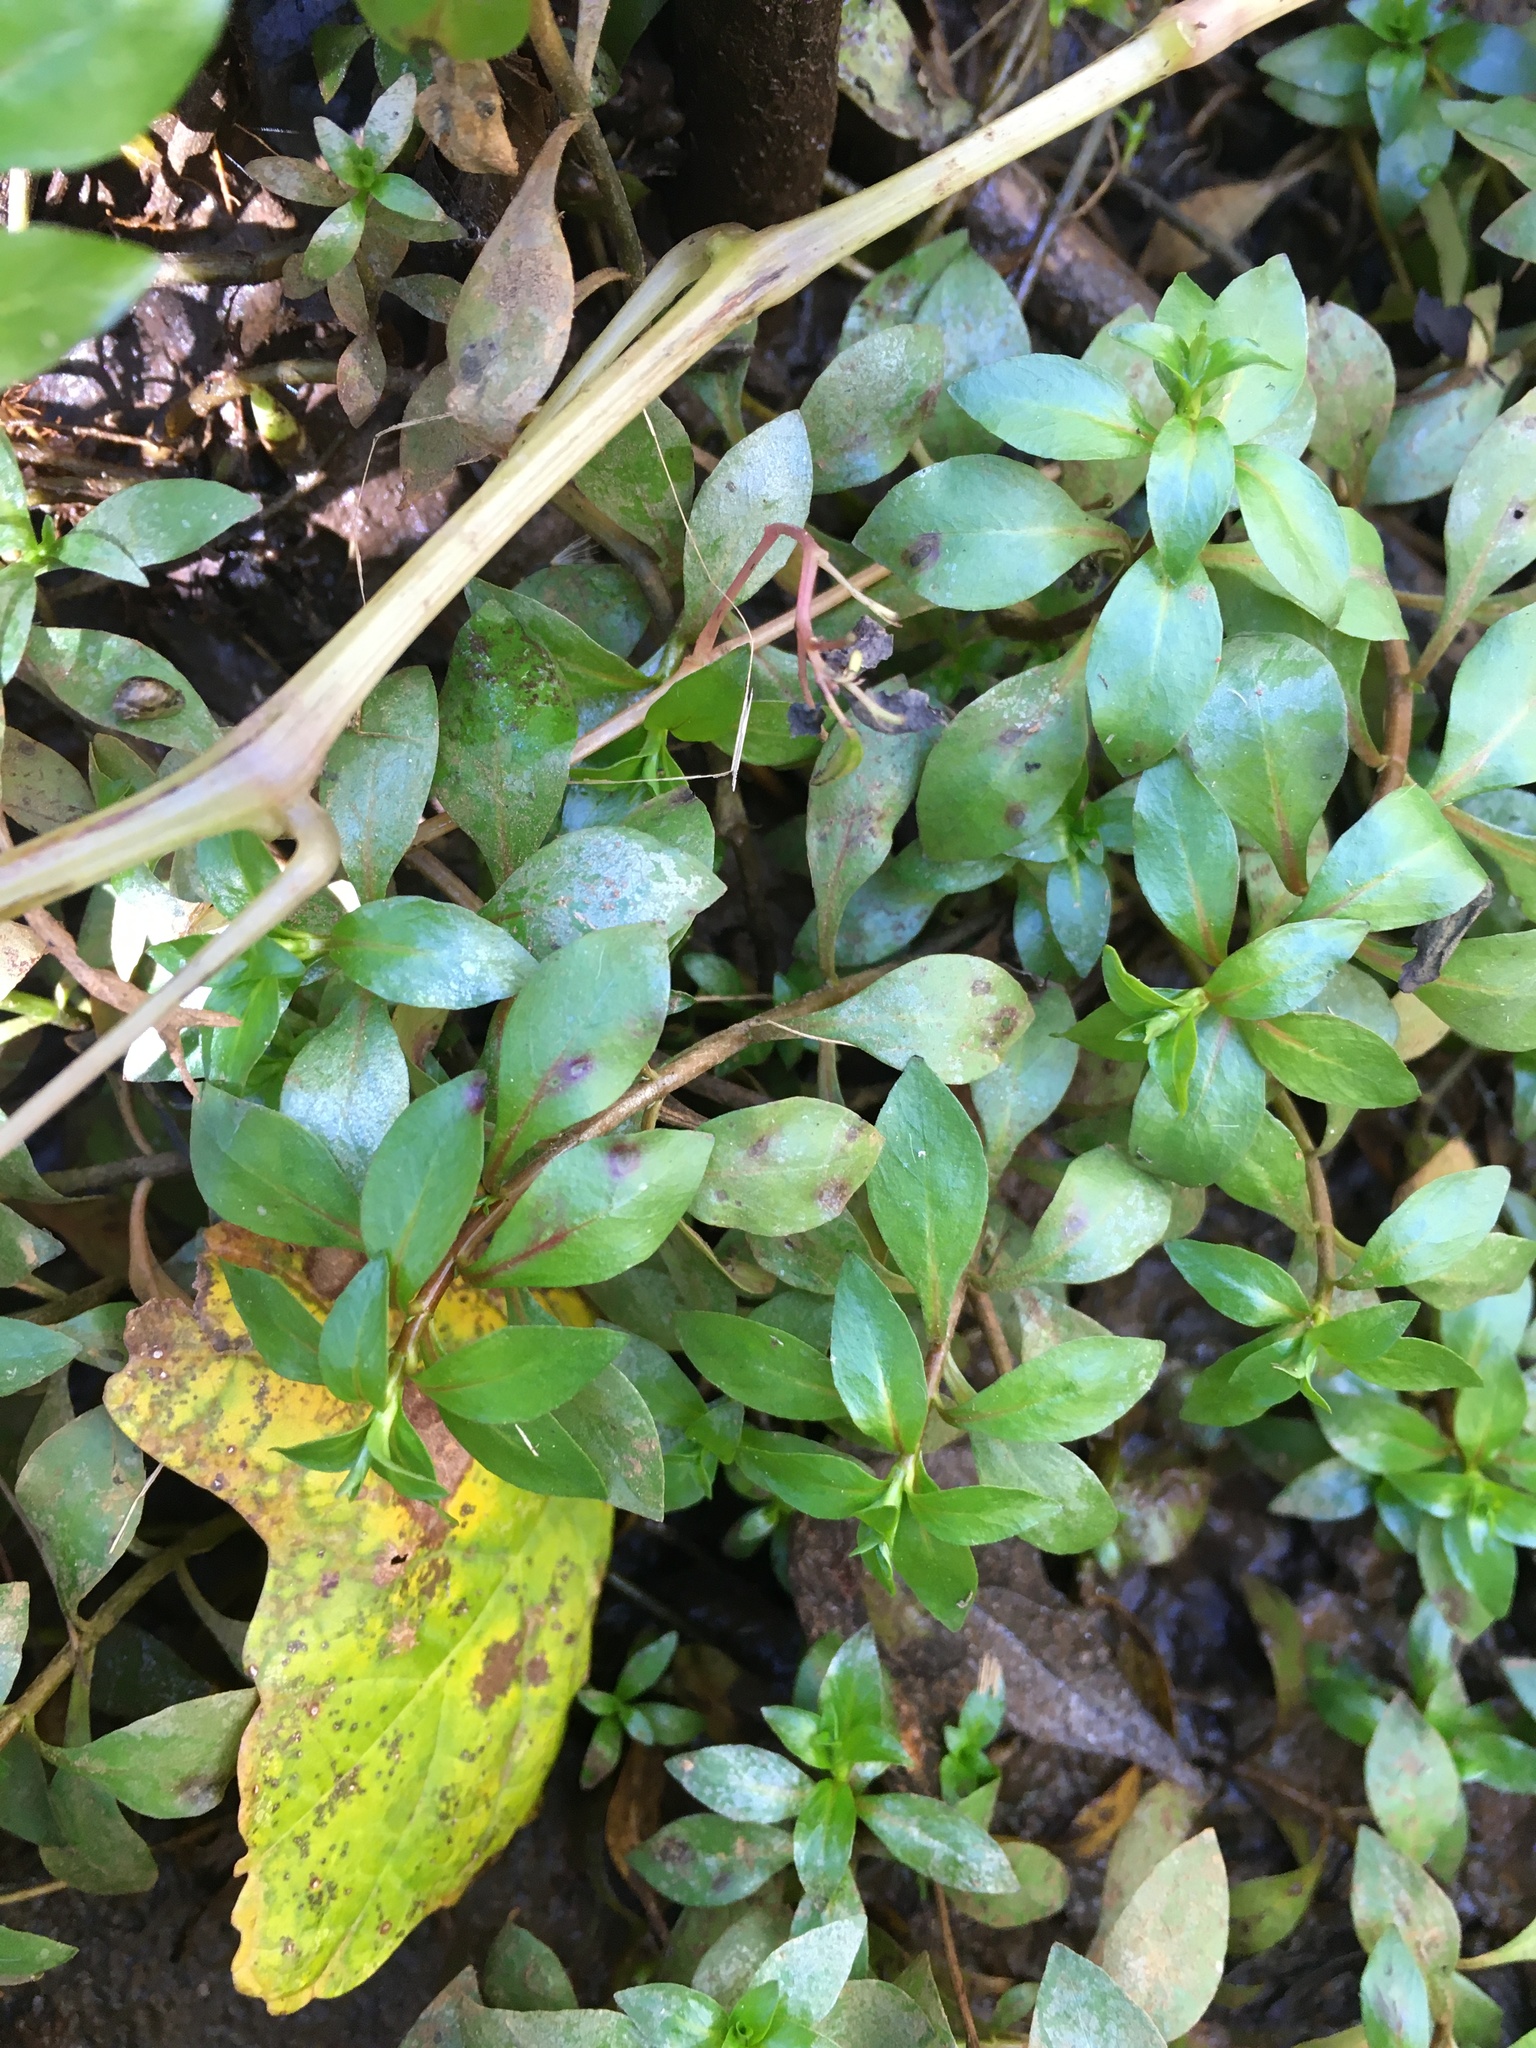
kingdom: Plantae
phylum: Tracheophyta
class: Magnoliopsida
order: Myrtales
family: Onagraceae
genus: Ludwigia
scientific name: Ludwigia palustris
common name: Hampshire-purslane
